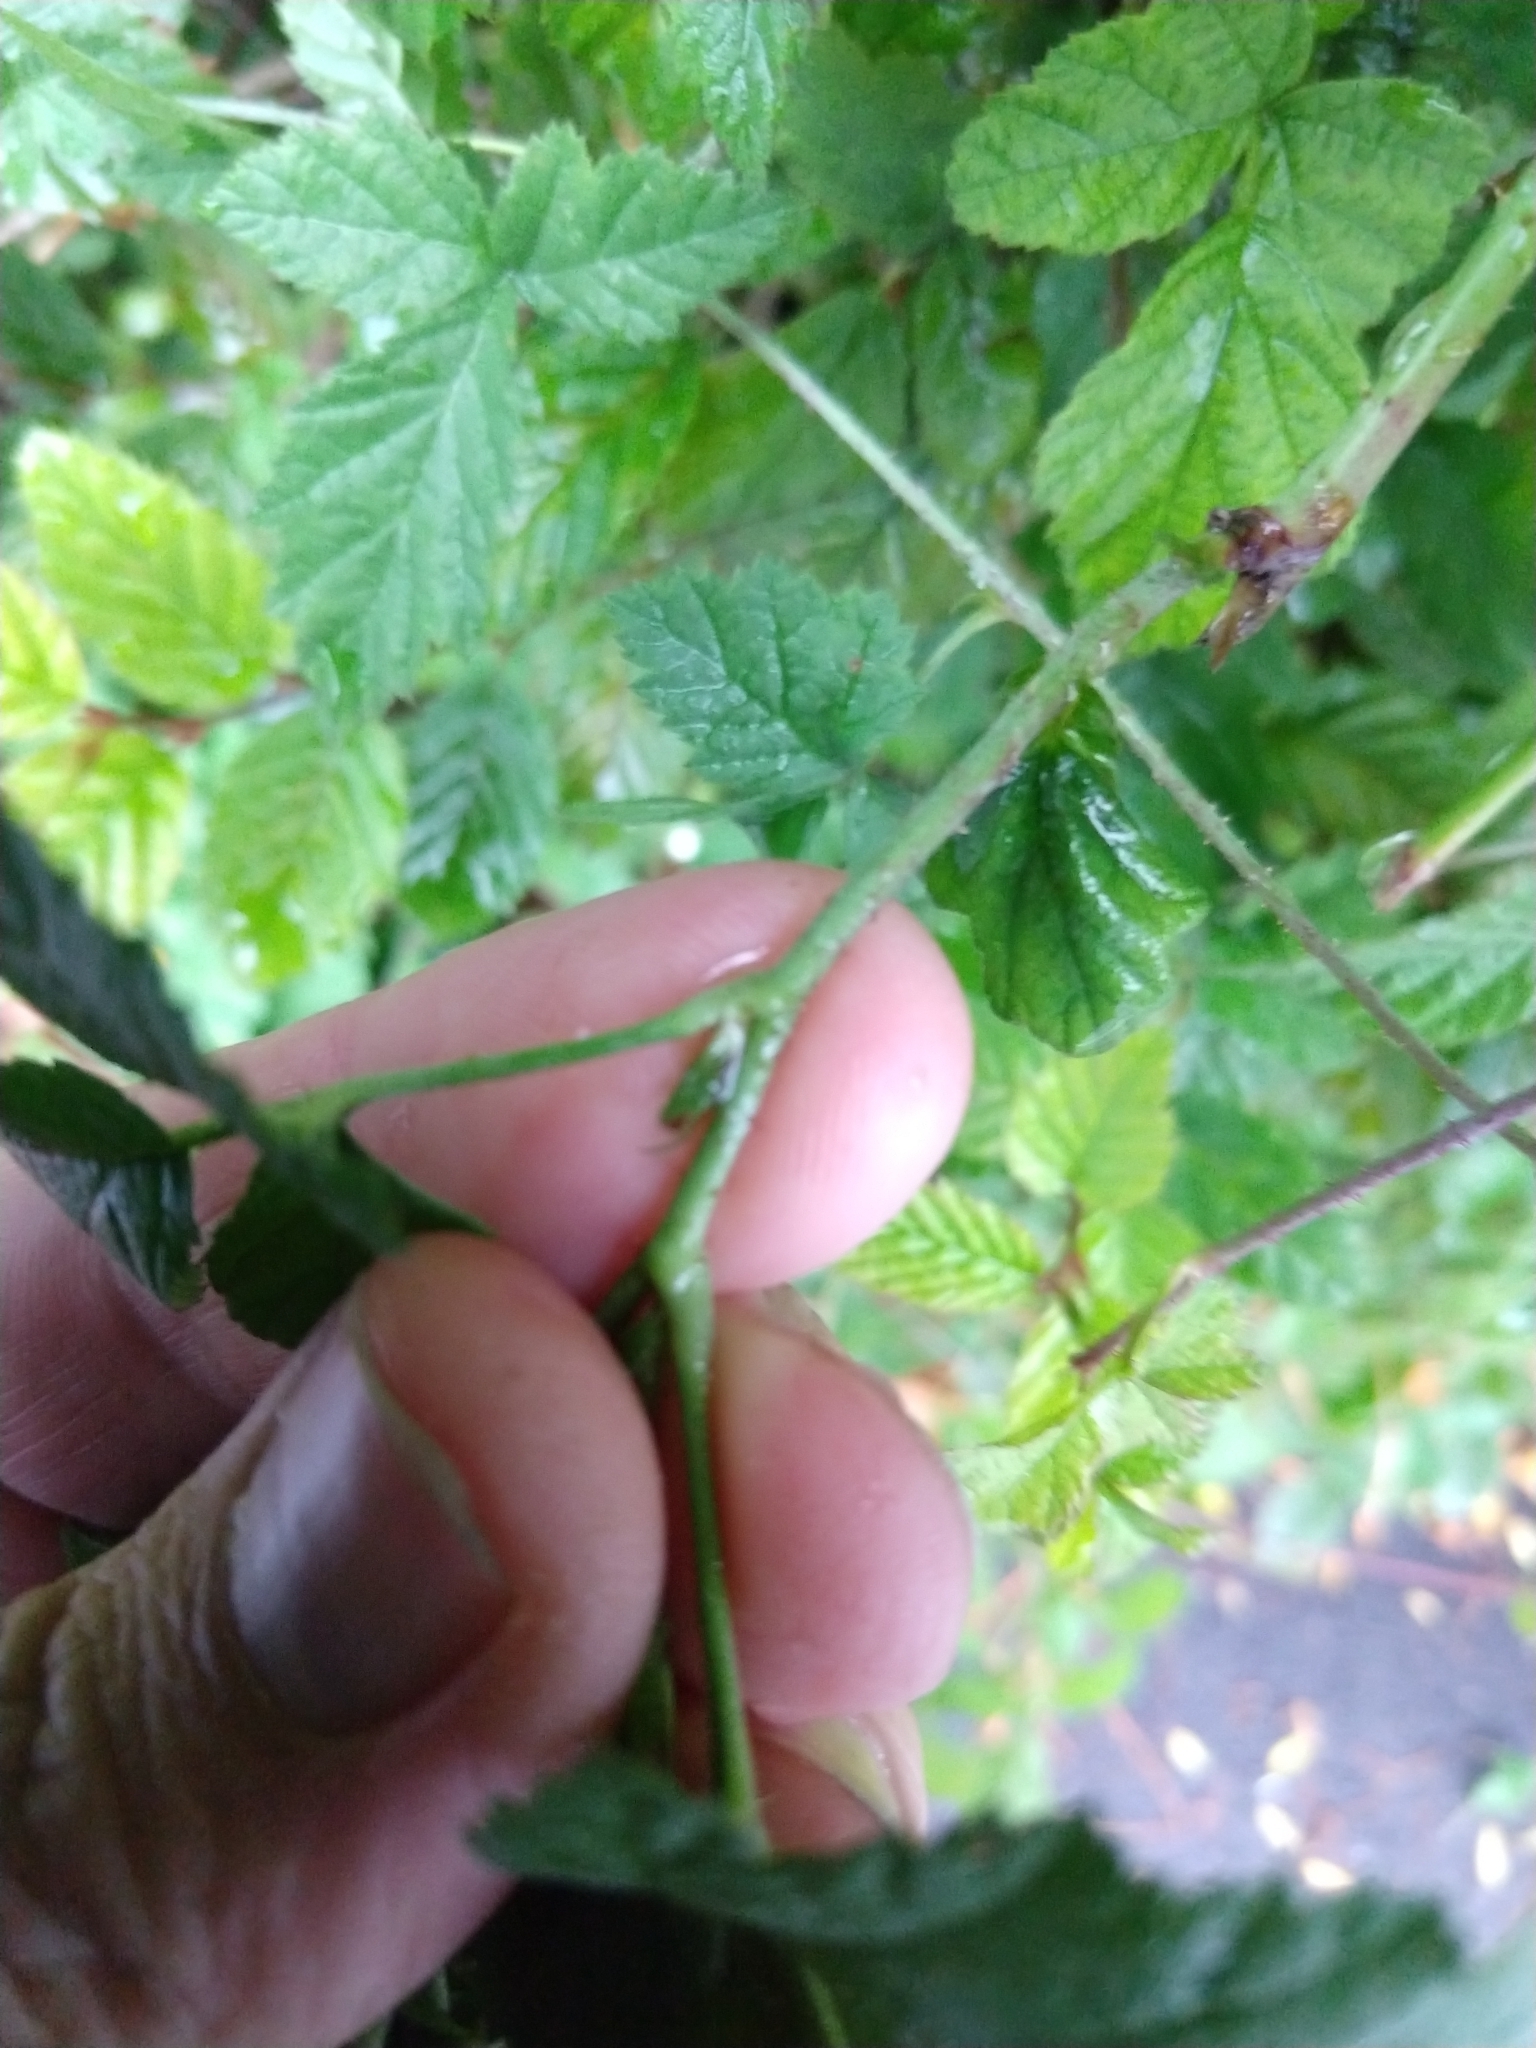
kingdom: Plantae
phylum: Tracheophyta
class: Magnoliopsida
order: Rosales
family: Rosaceae
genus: Rubus
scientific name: Rubus caesius
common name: Dewberry
